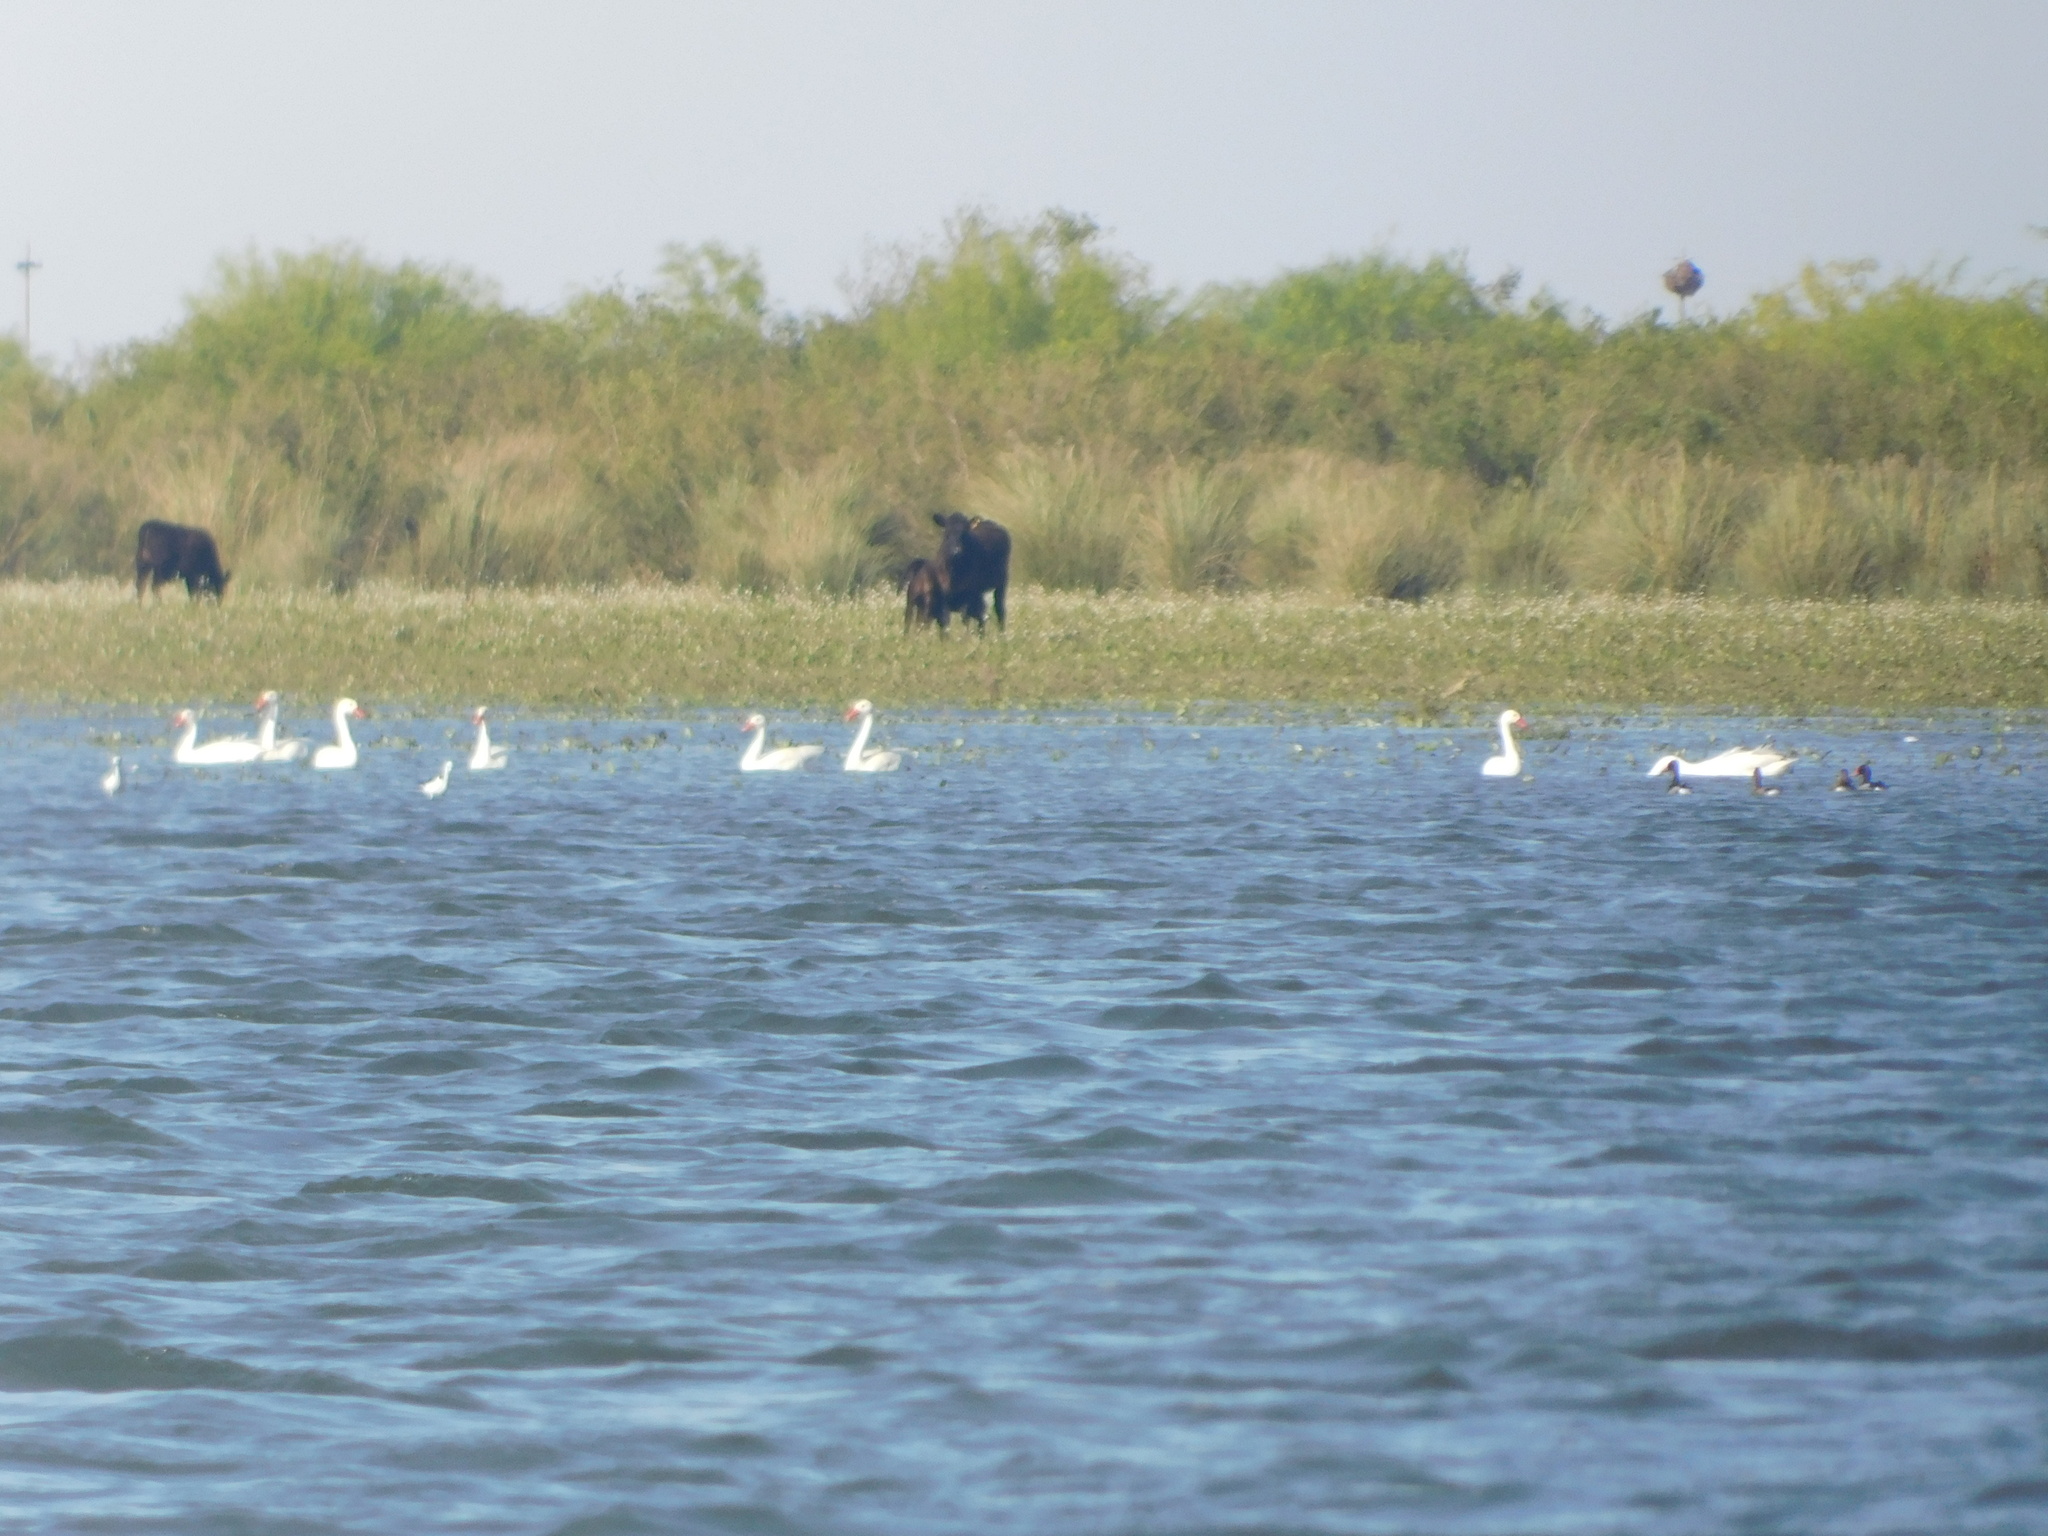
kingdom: Animalia
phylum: Chordata
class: Aves
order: Anseriformes
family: Anatidae
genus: Coscoroba
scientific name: Coscoroba coscoroba
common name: Coscoroba swan
